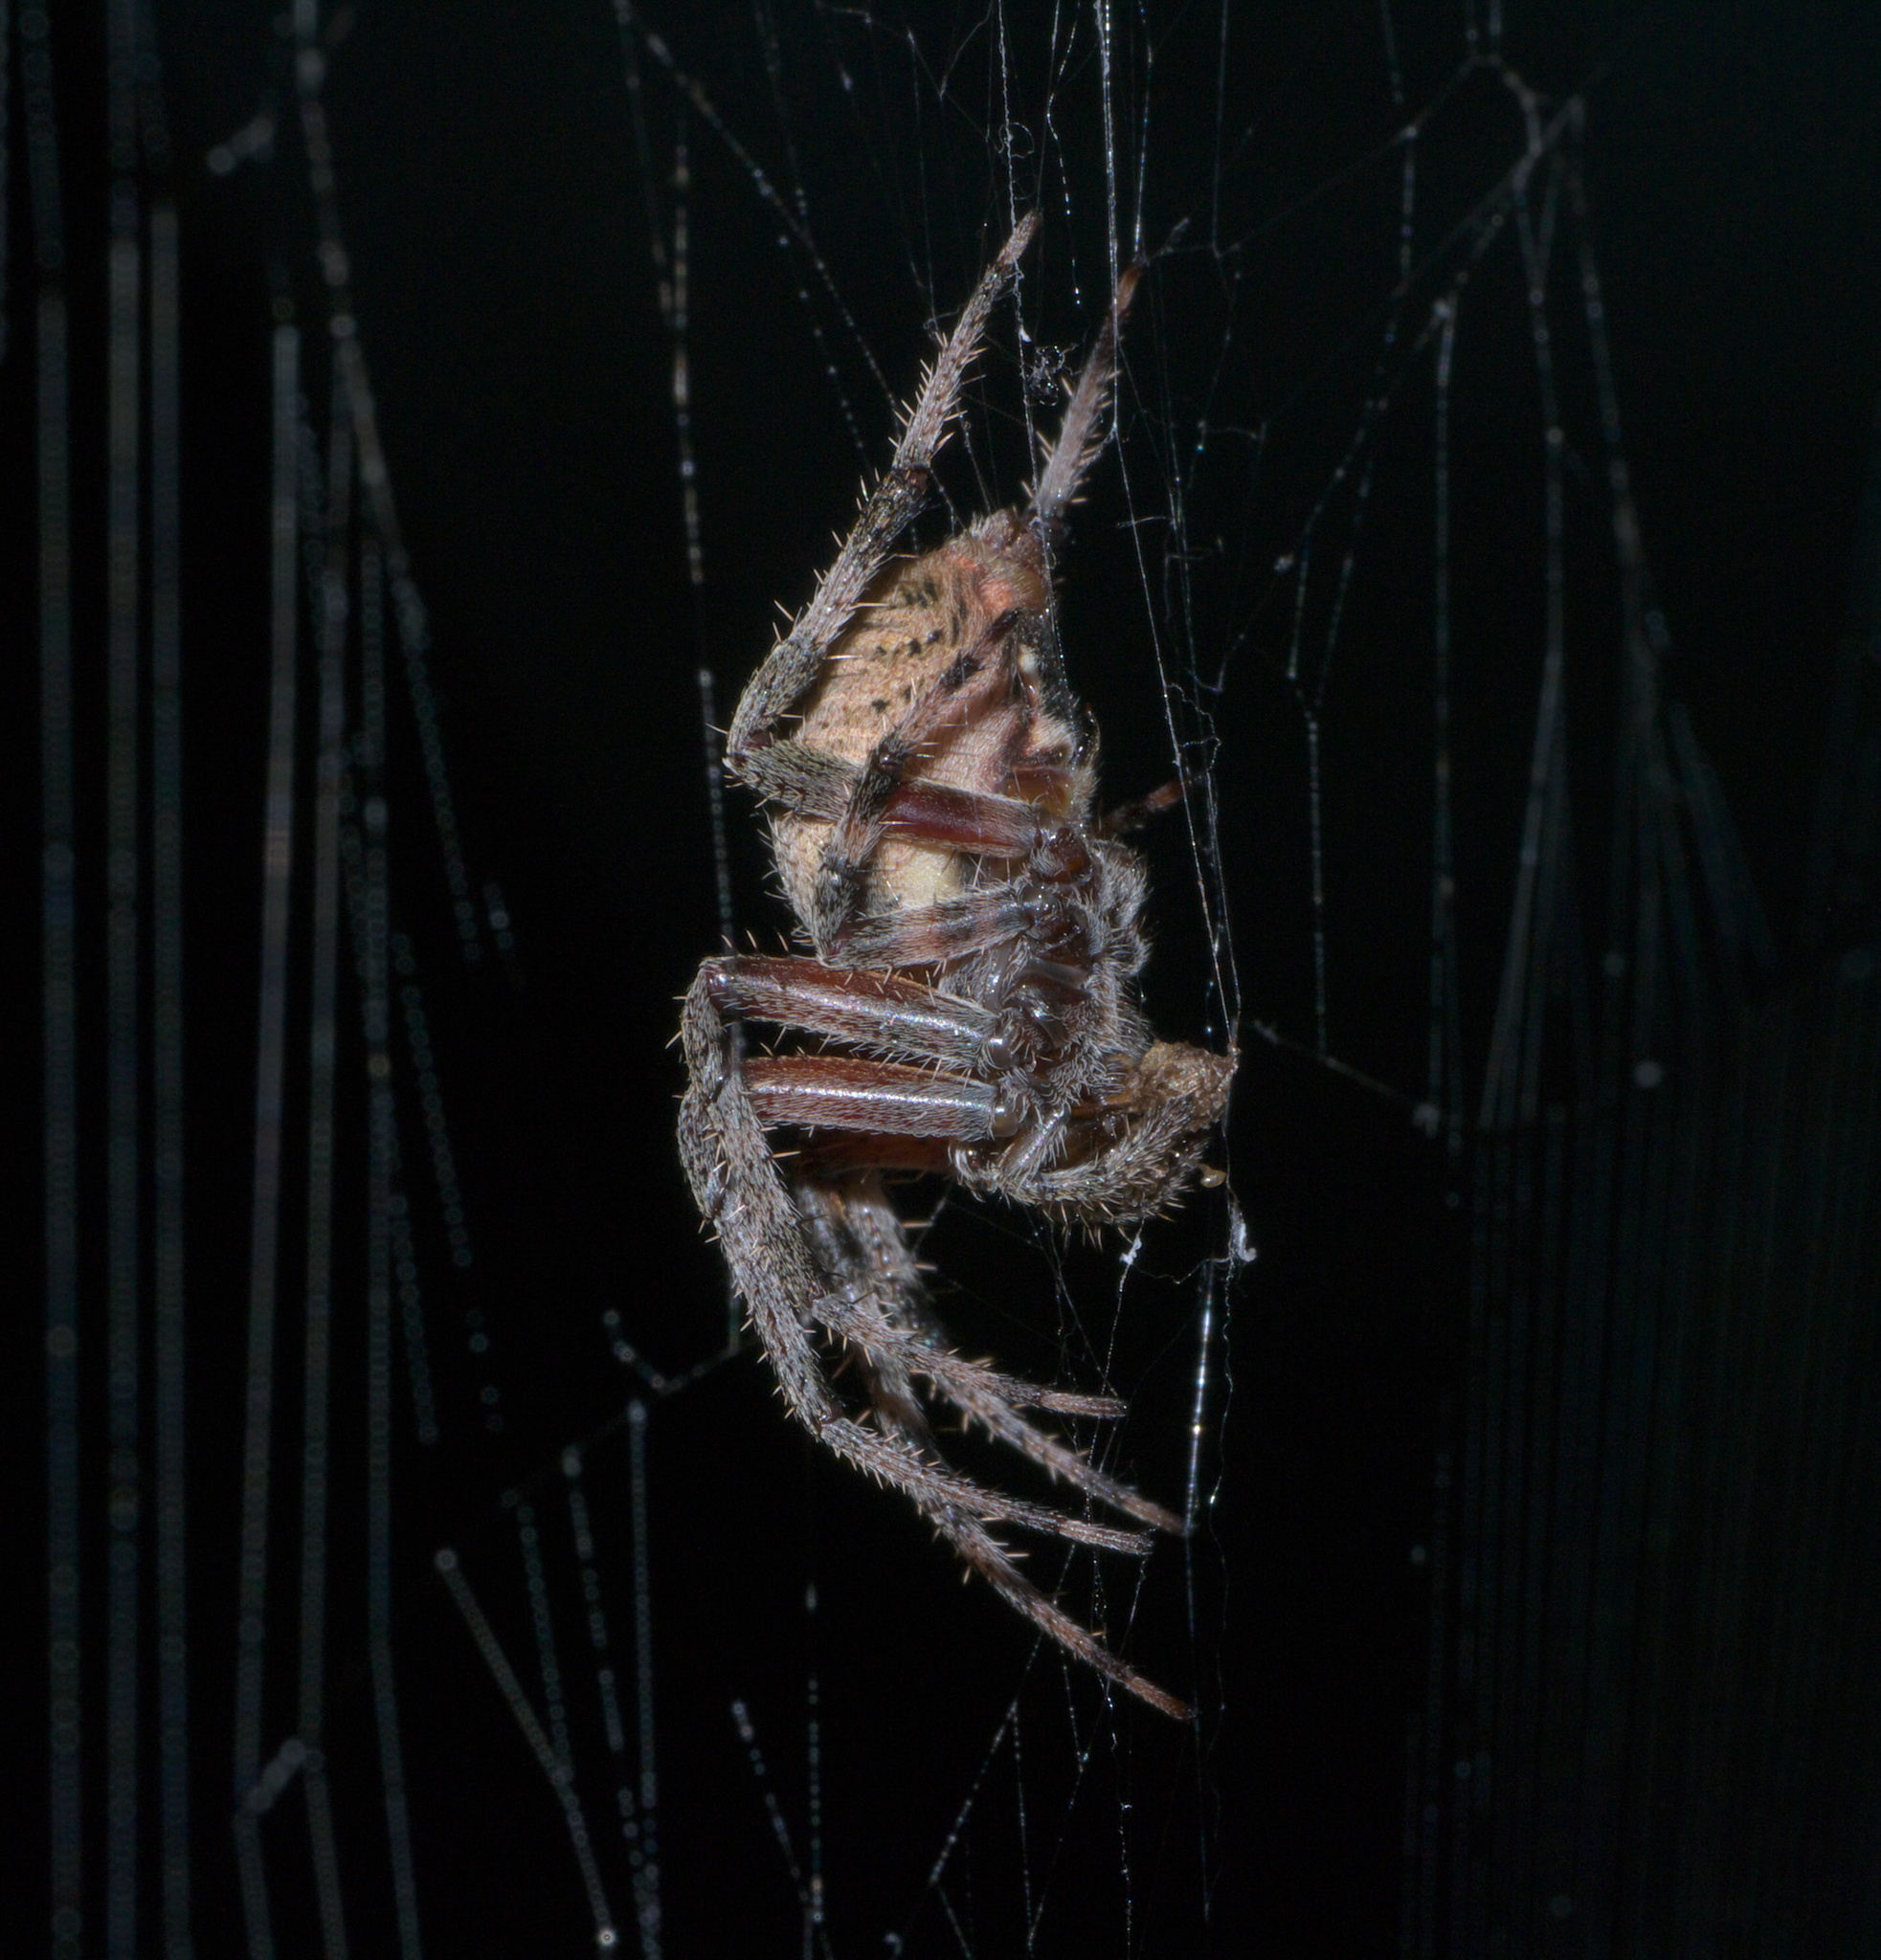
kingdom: Animalia
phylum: Arthropoda
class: Arachnida
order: Araneae
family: Araneidae
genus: Neoscona
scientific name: Neoscona crucifera
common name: Spotted orbweaver
